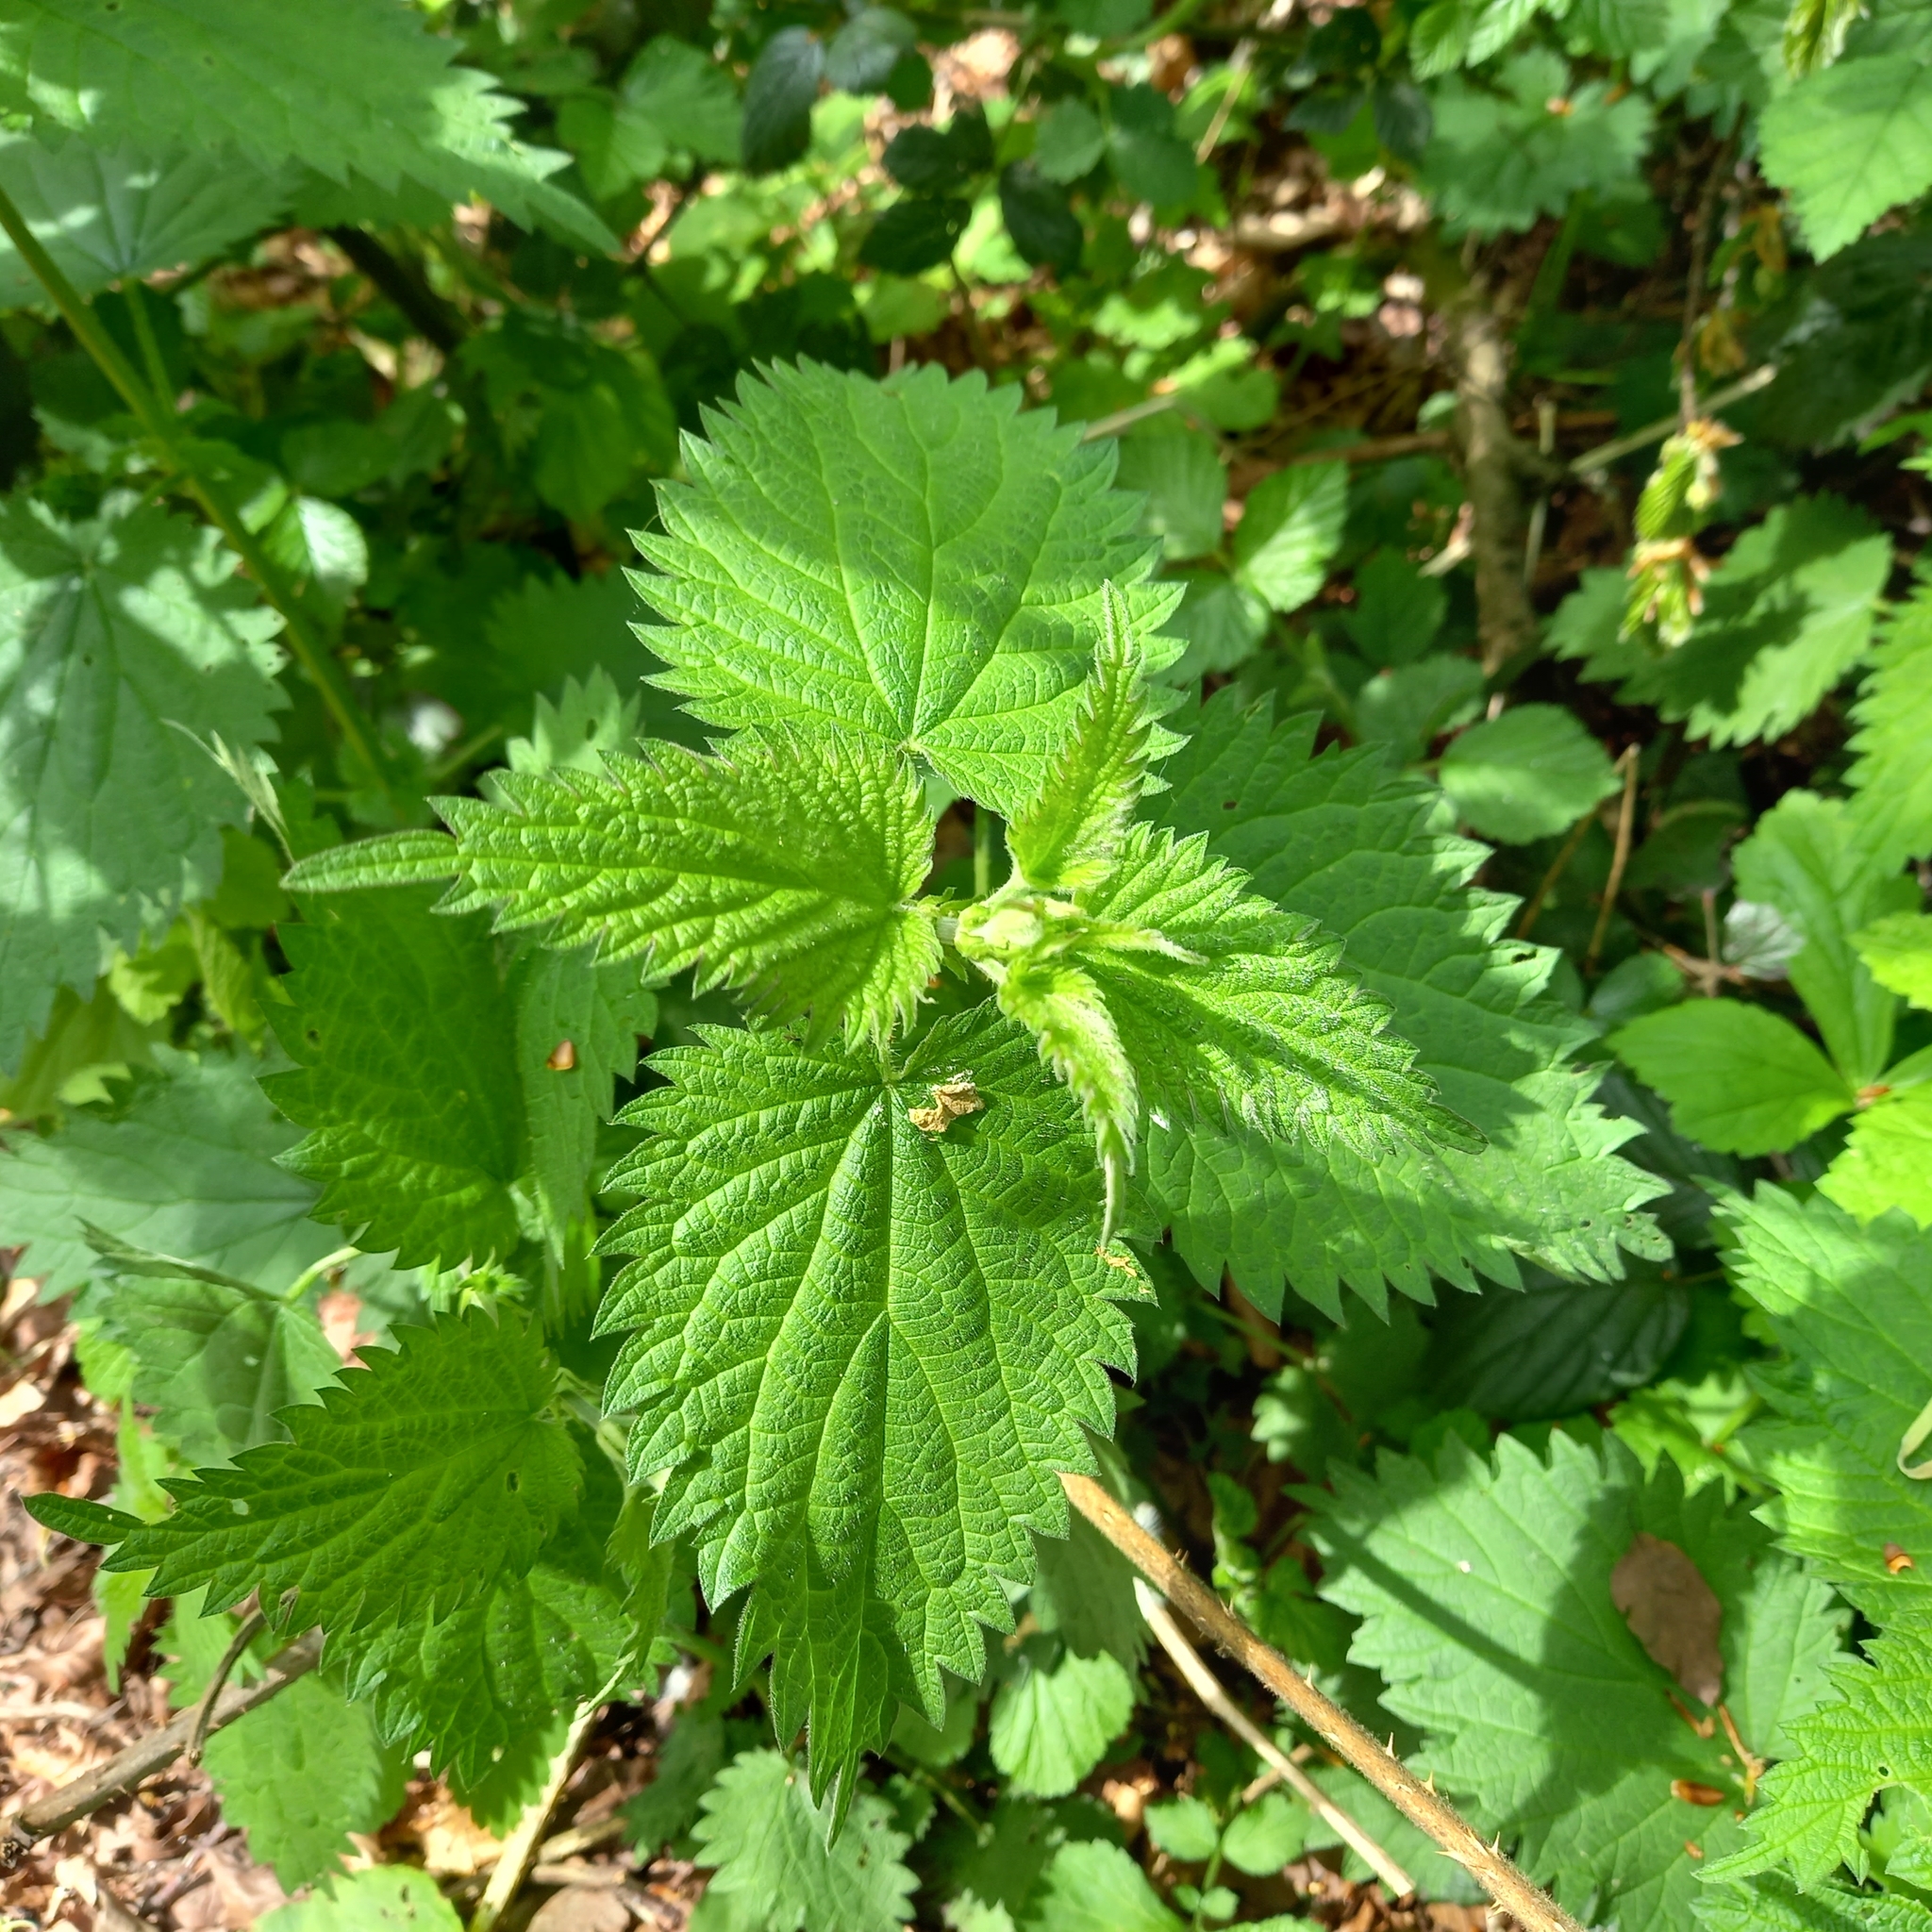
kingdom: Plantae
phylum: Tracheophyta
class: Magnoliopsida
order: Rosales
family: Urticaceae
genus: Urtica
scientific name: Urtica dioica
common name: Common nettle
